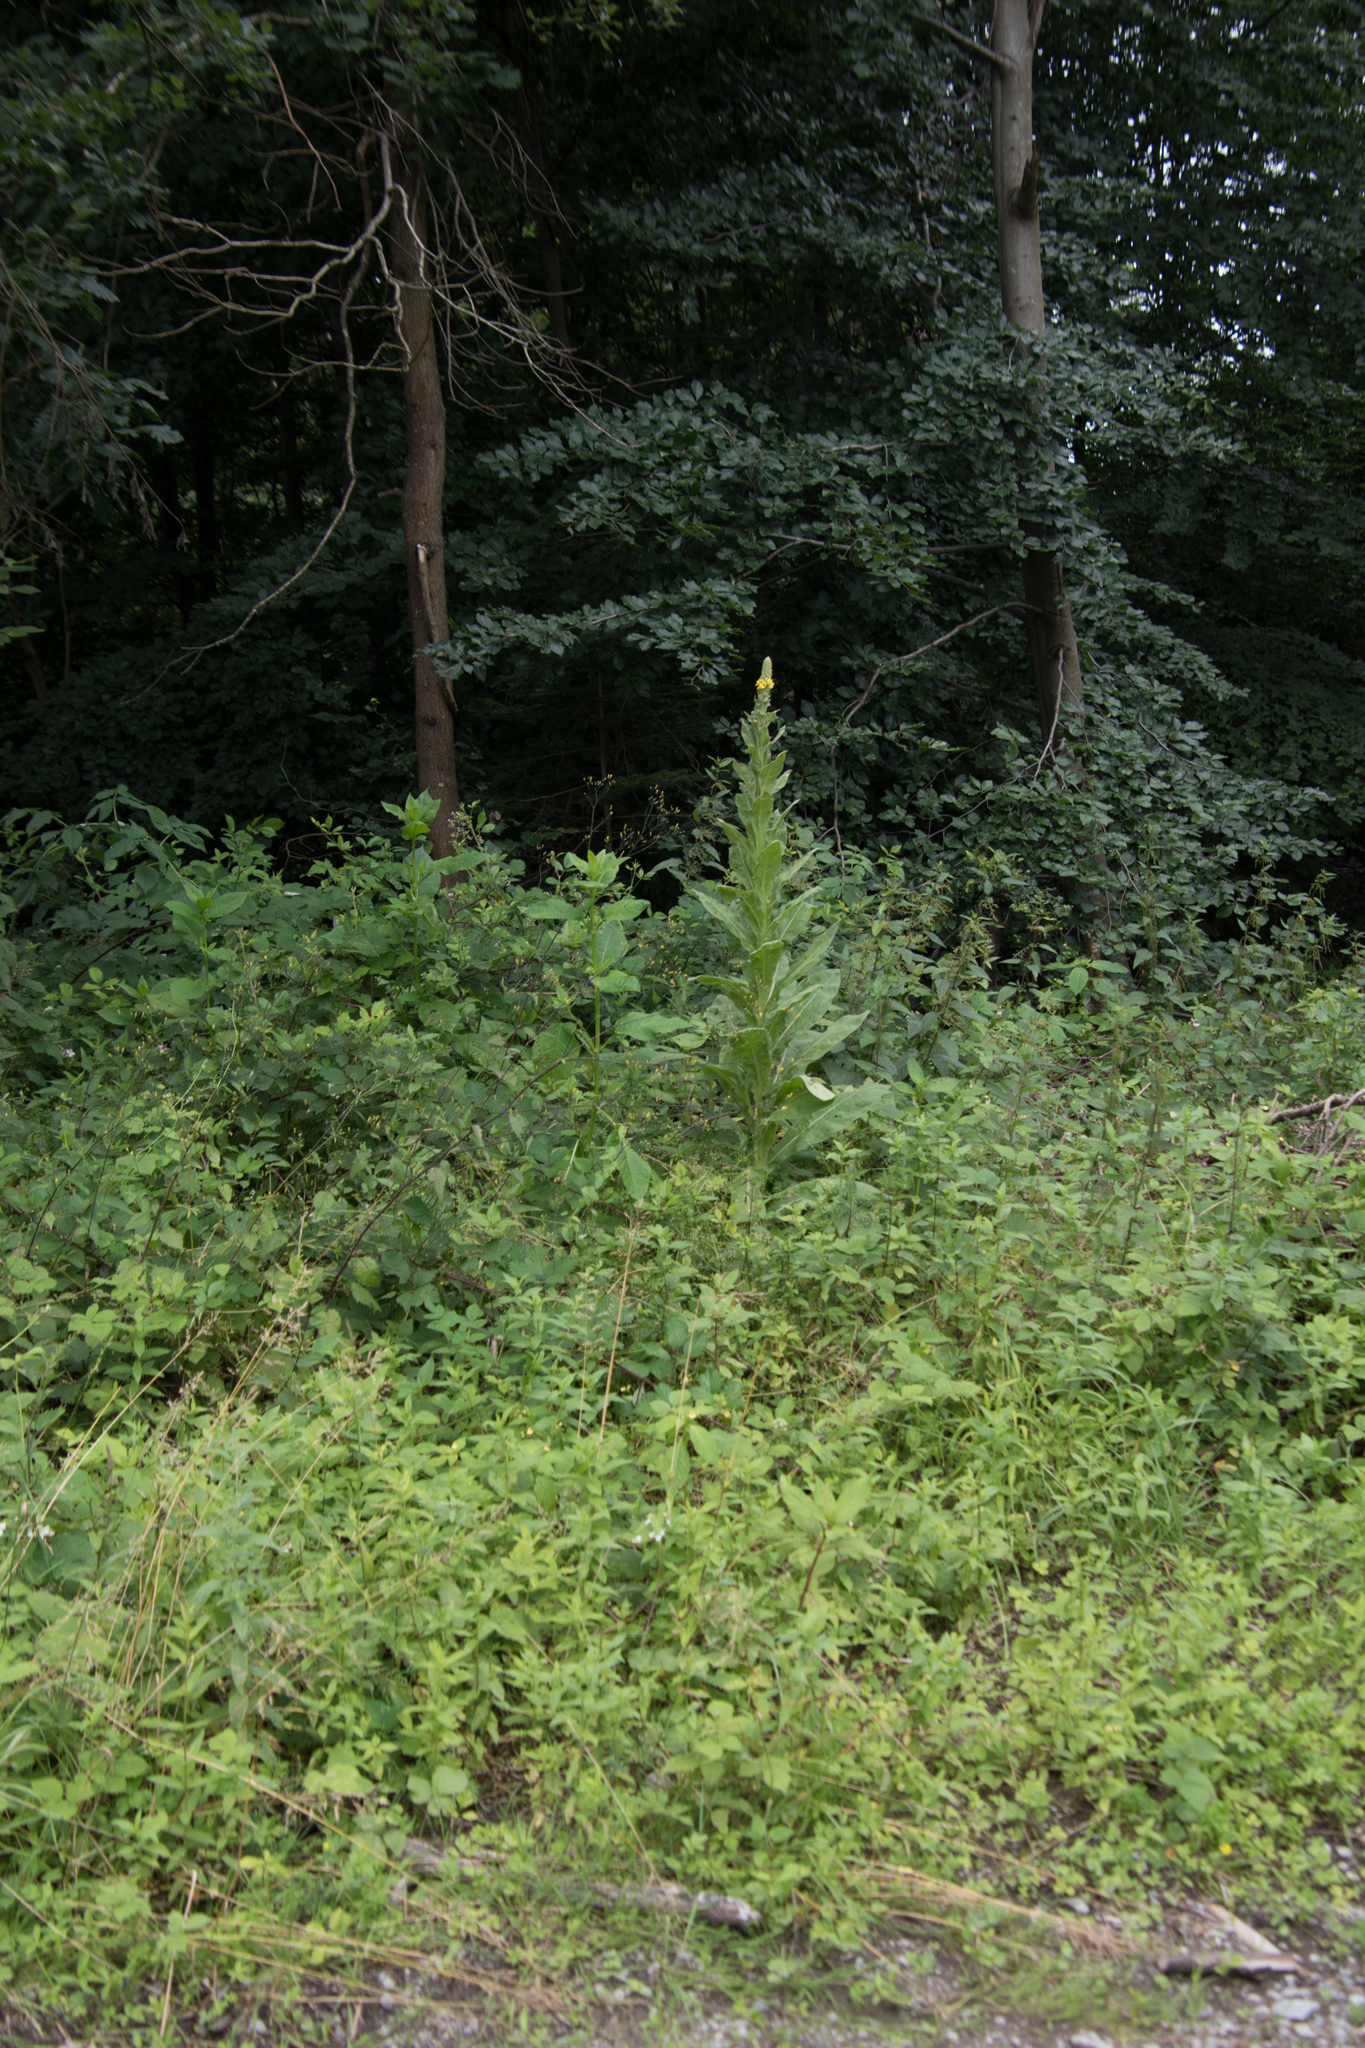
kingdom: Plantae
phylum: Tracheophyta
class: Magnoliopsida
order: Lamiales
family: Scrophulariaceae
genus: Verbascum
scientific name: Verbascum thapsus
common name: Common mullein
